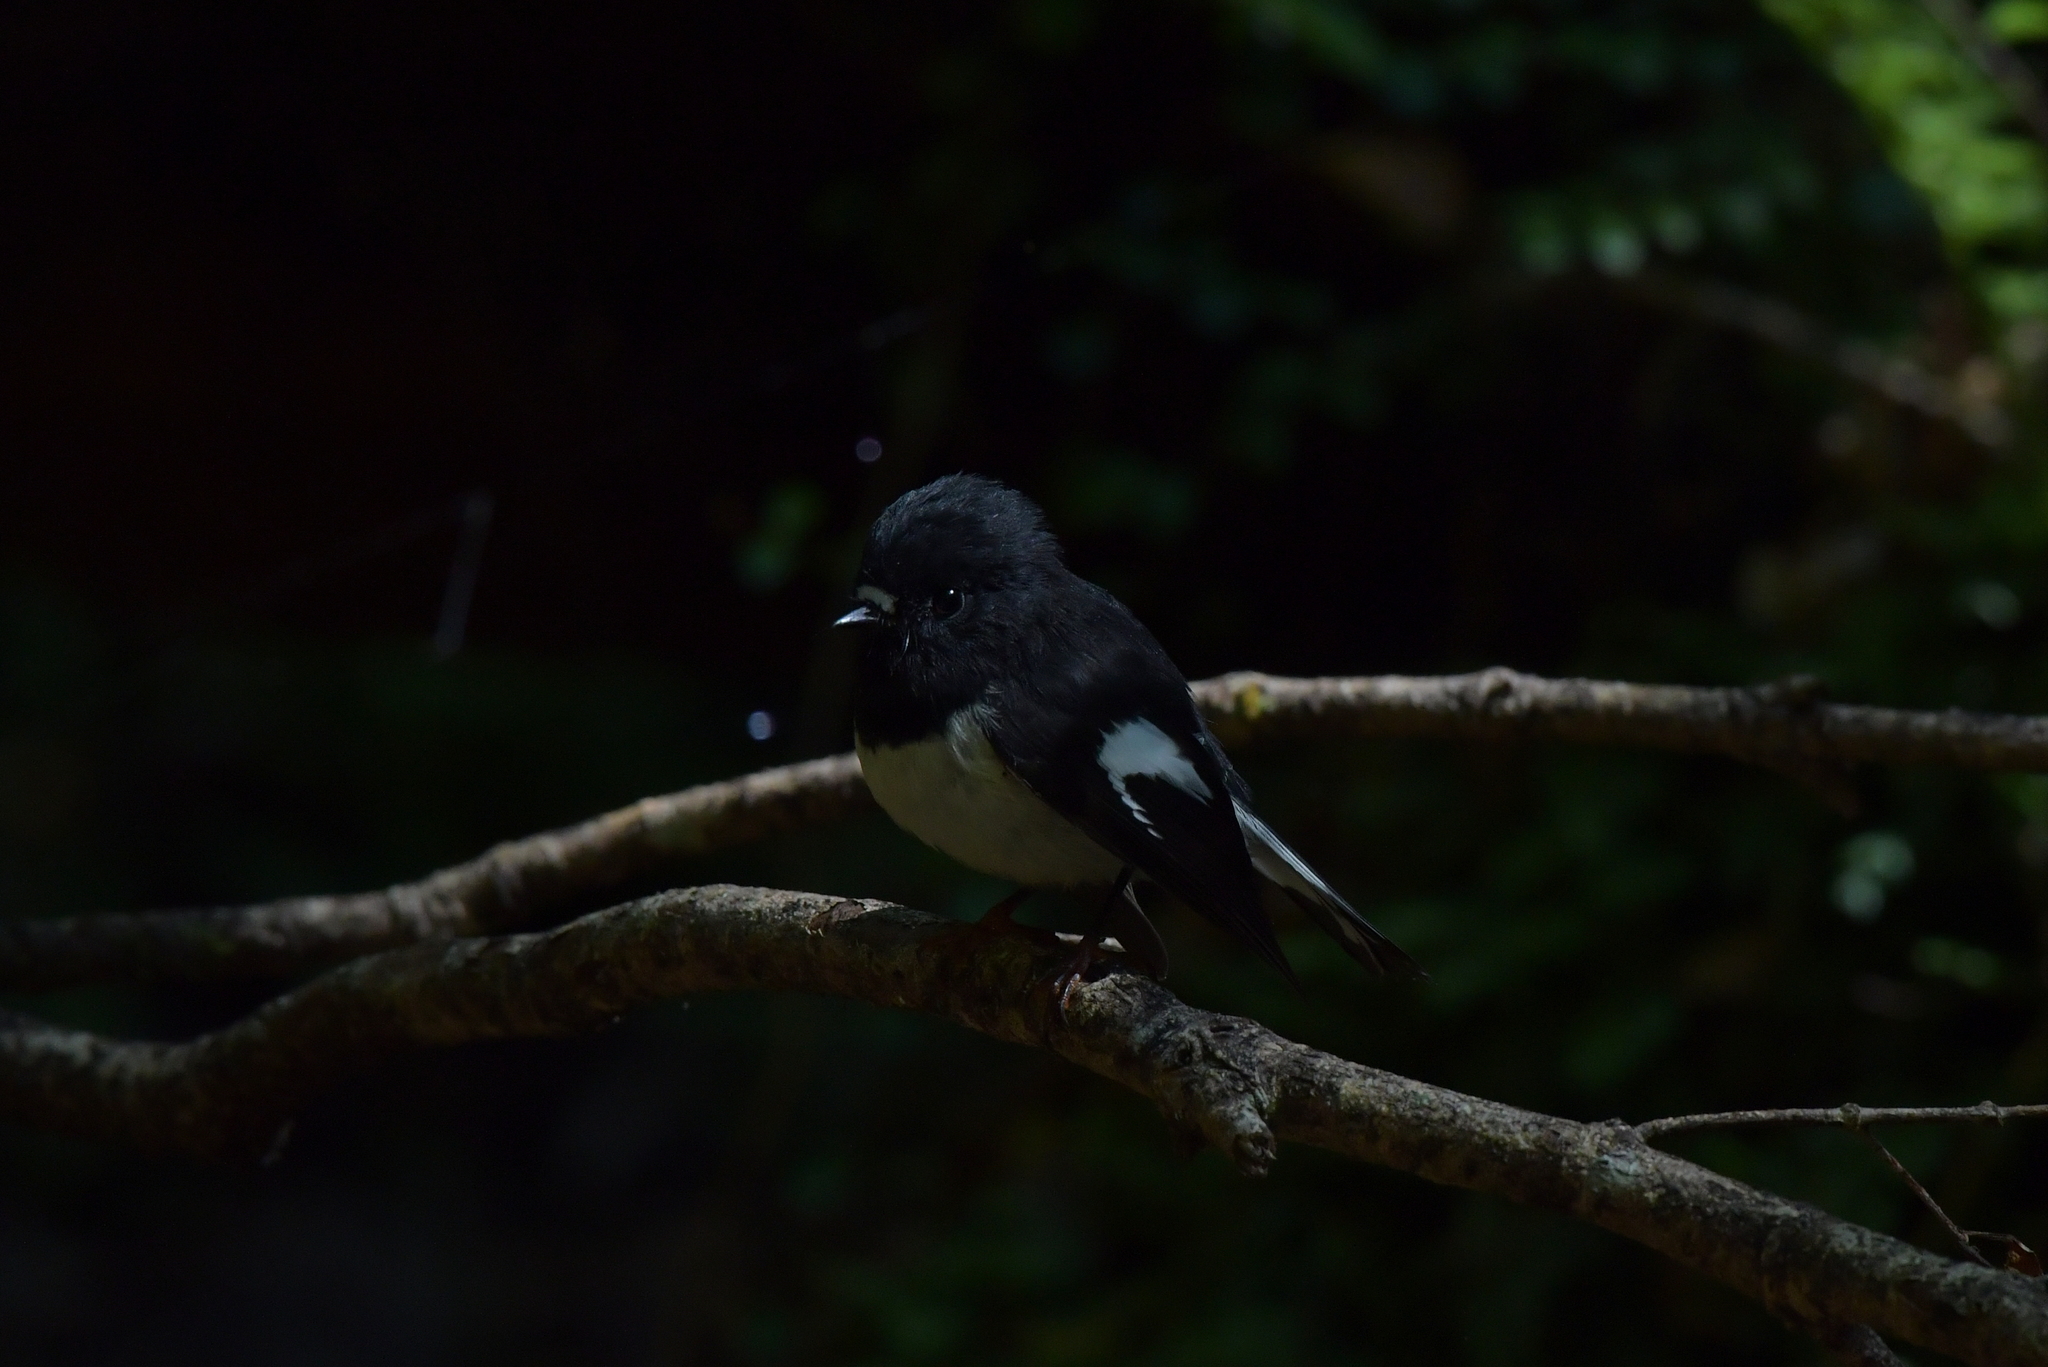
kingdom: Animalia
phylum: Chordata
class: Aves
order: Passeriformes
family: Petroicidae
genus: Petroica
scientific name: Petroica macrocephala
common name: Tomtit
